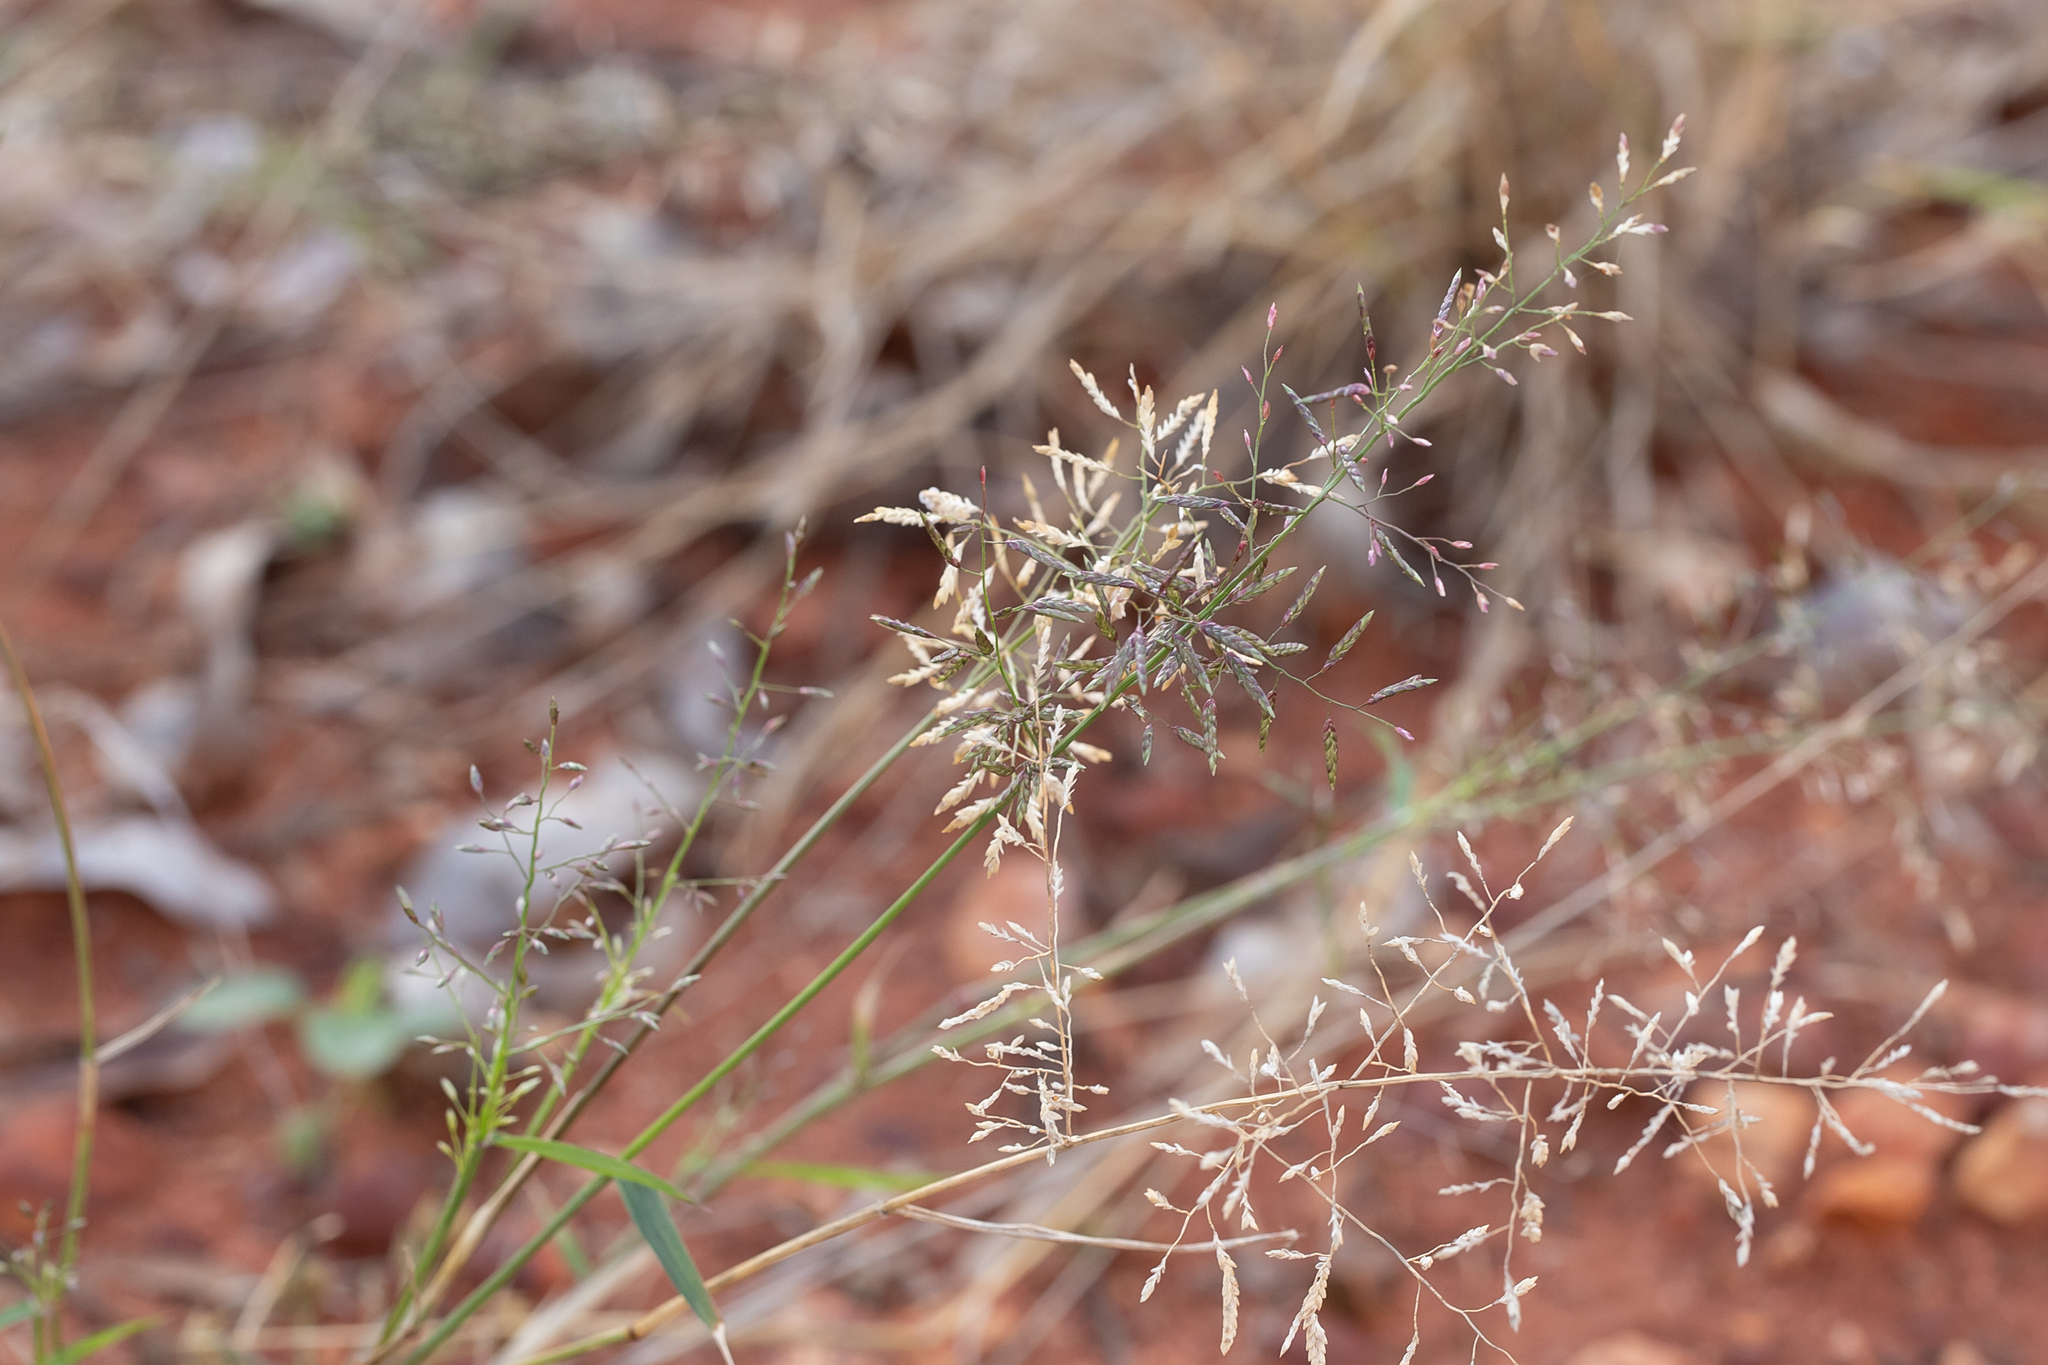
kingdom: Plantae
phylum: Tracheophyta
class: Liliopsida
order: Poales
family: Poaceae
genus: Eragrostis
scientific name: Eragrostis minor
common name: Small love-grass
